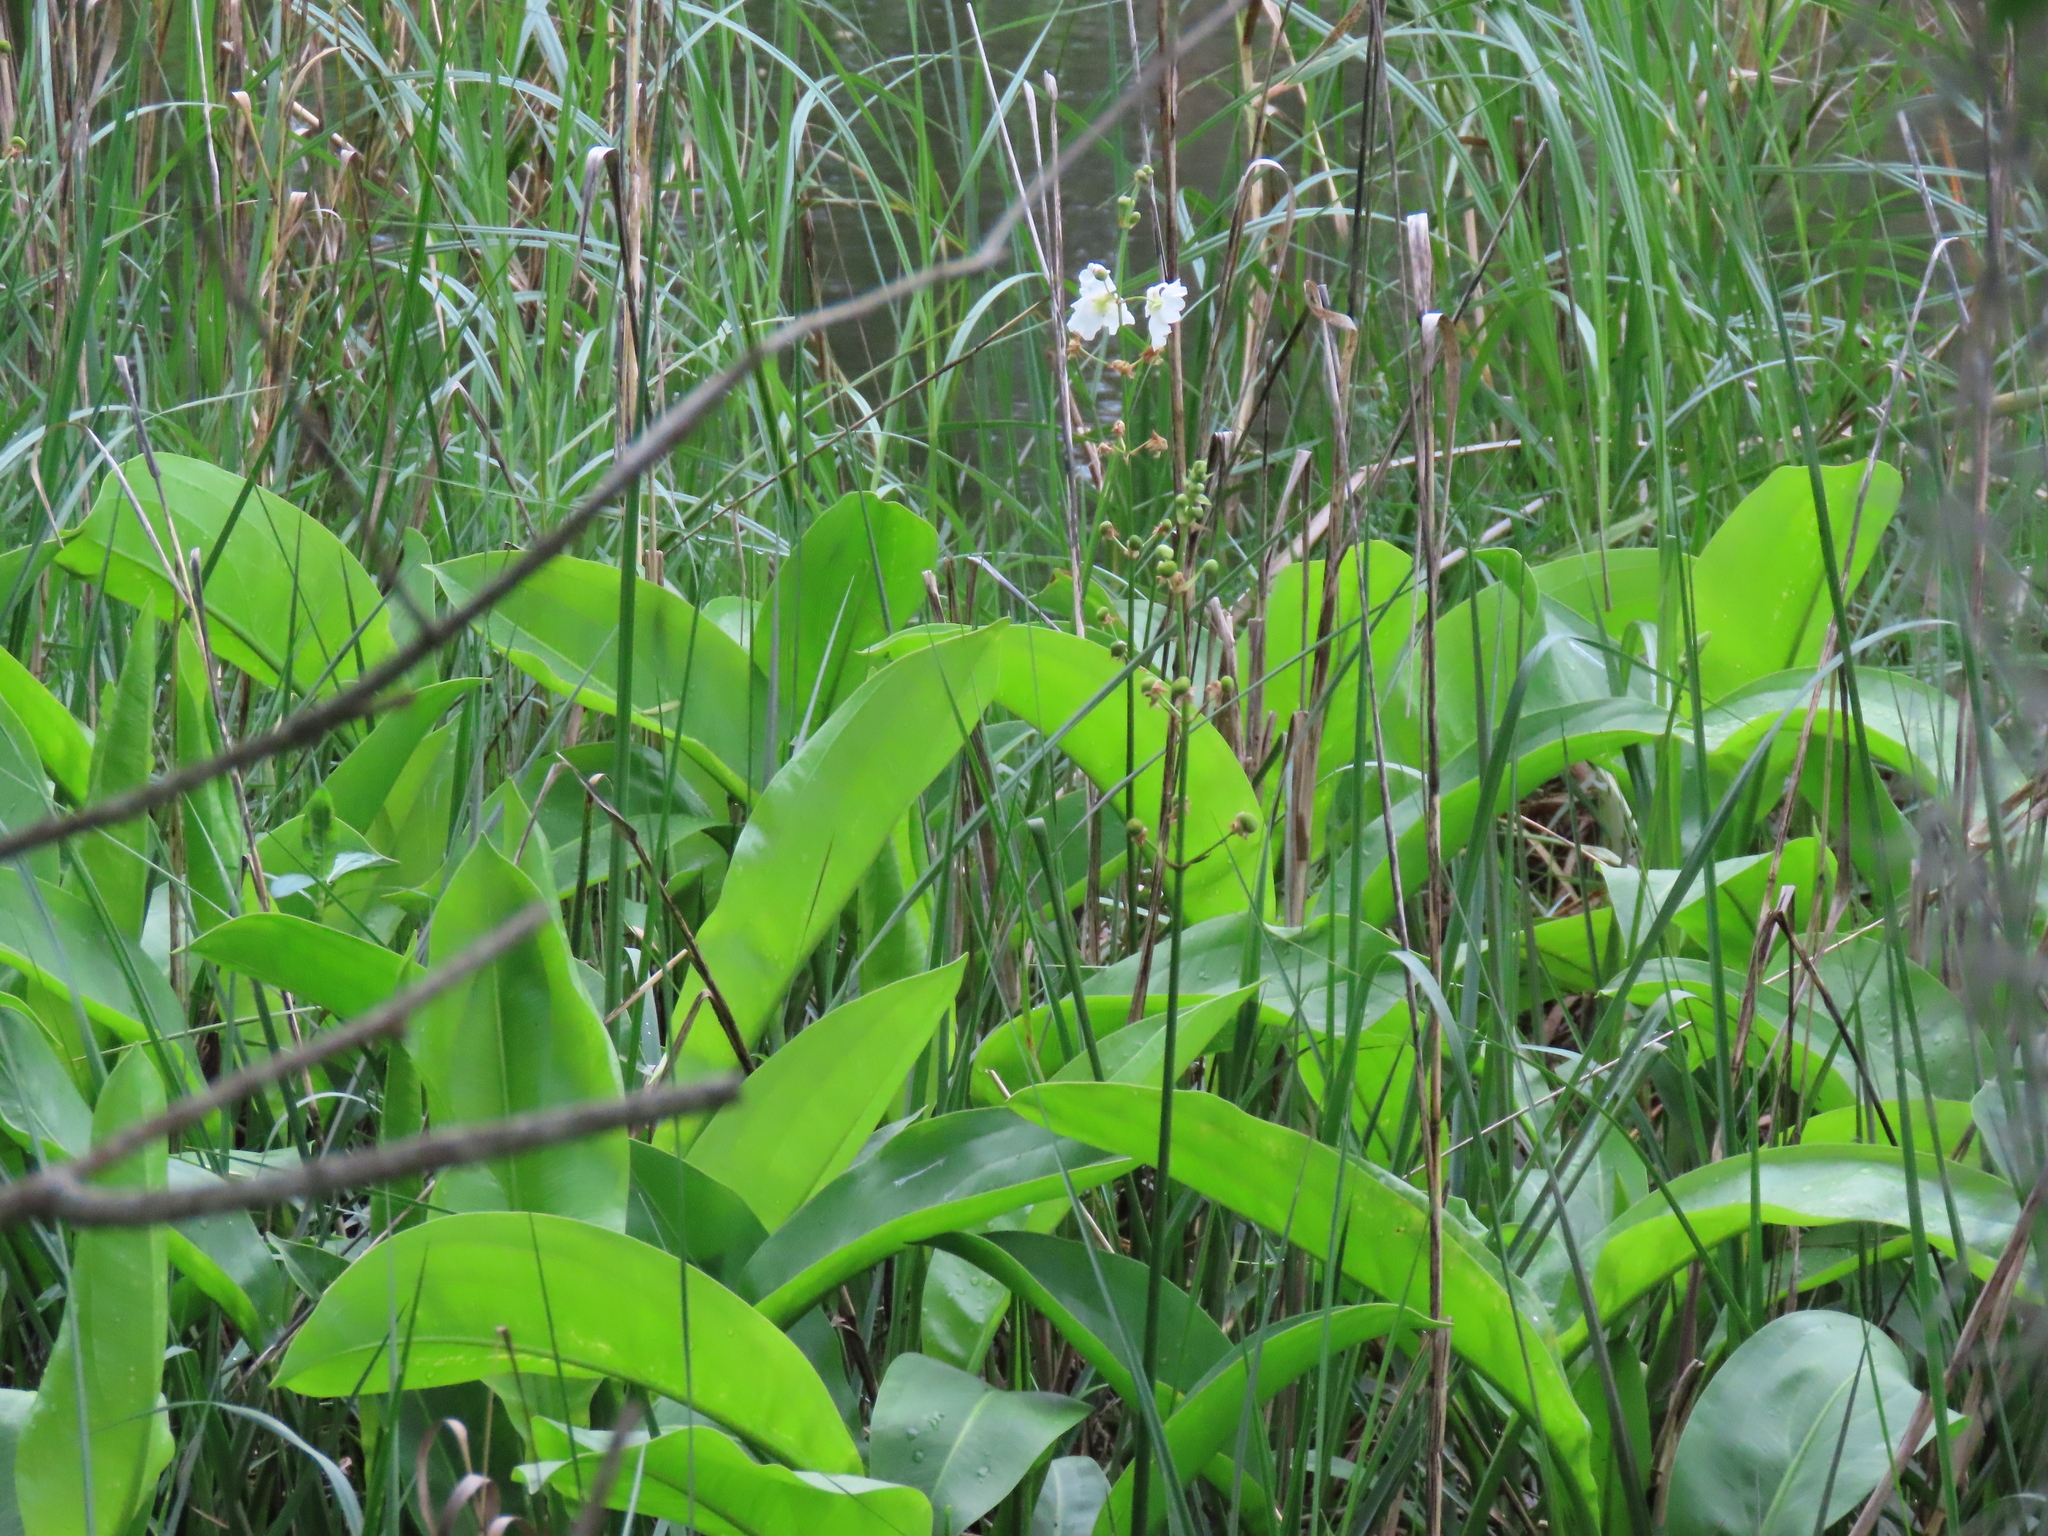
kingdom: Plantae
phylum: Tracheophyta
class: Liliopsida
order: Alismatales
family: Alismataceae
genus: Sagittaria
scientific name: Sagittaria lancifolia
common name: Lance-leaf arrowhead
